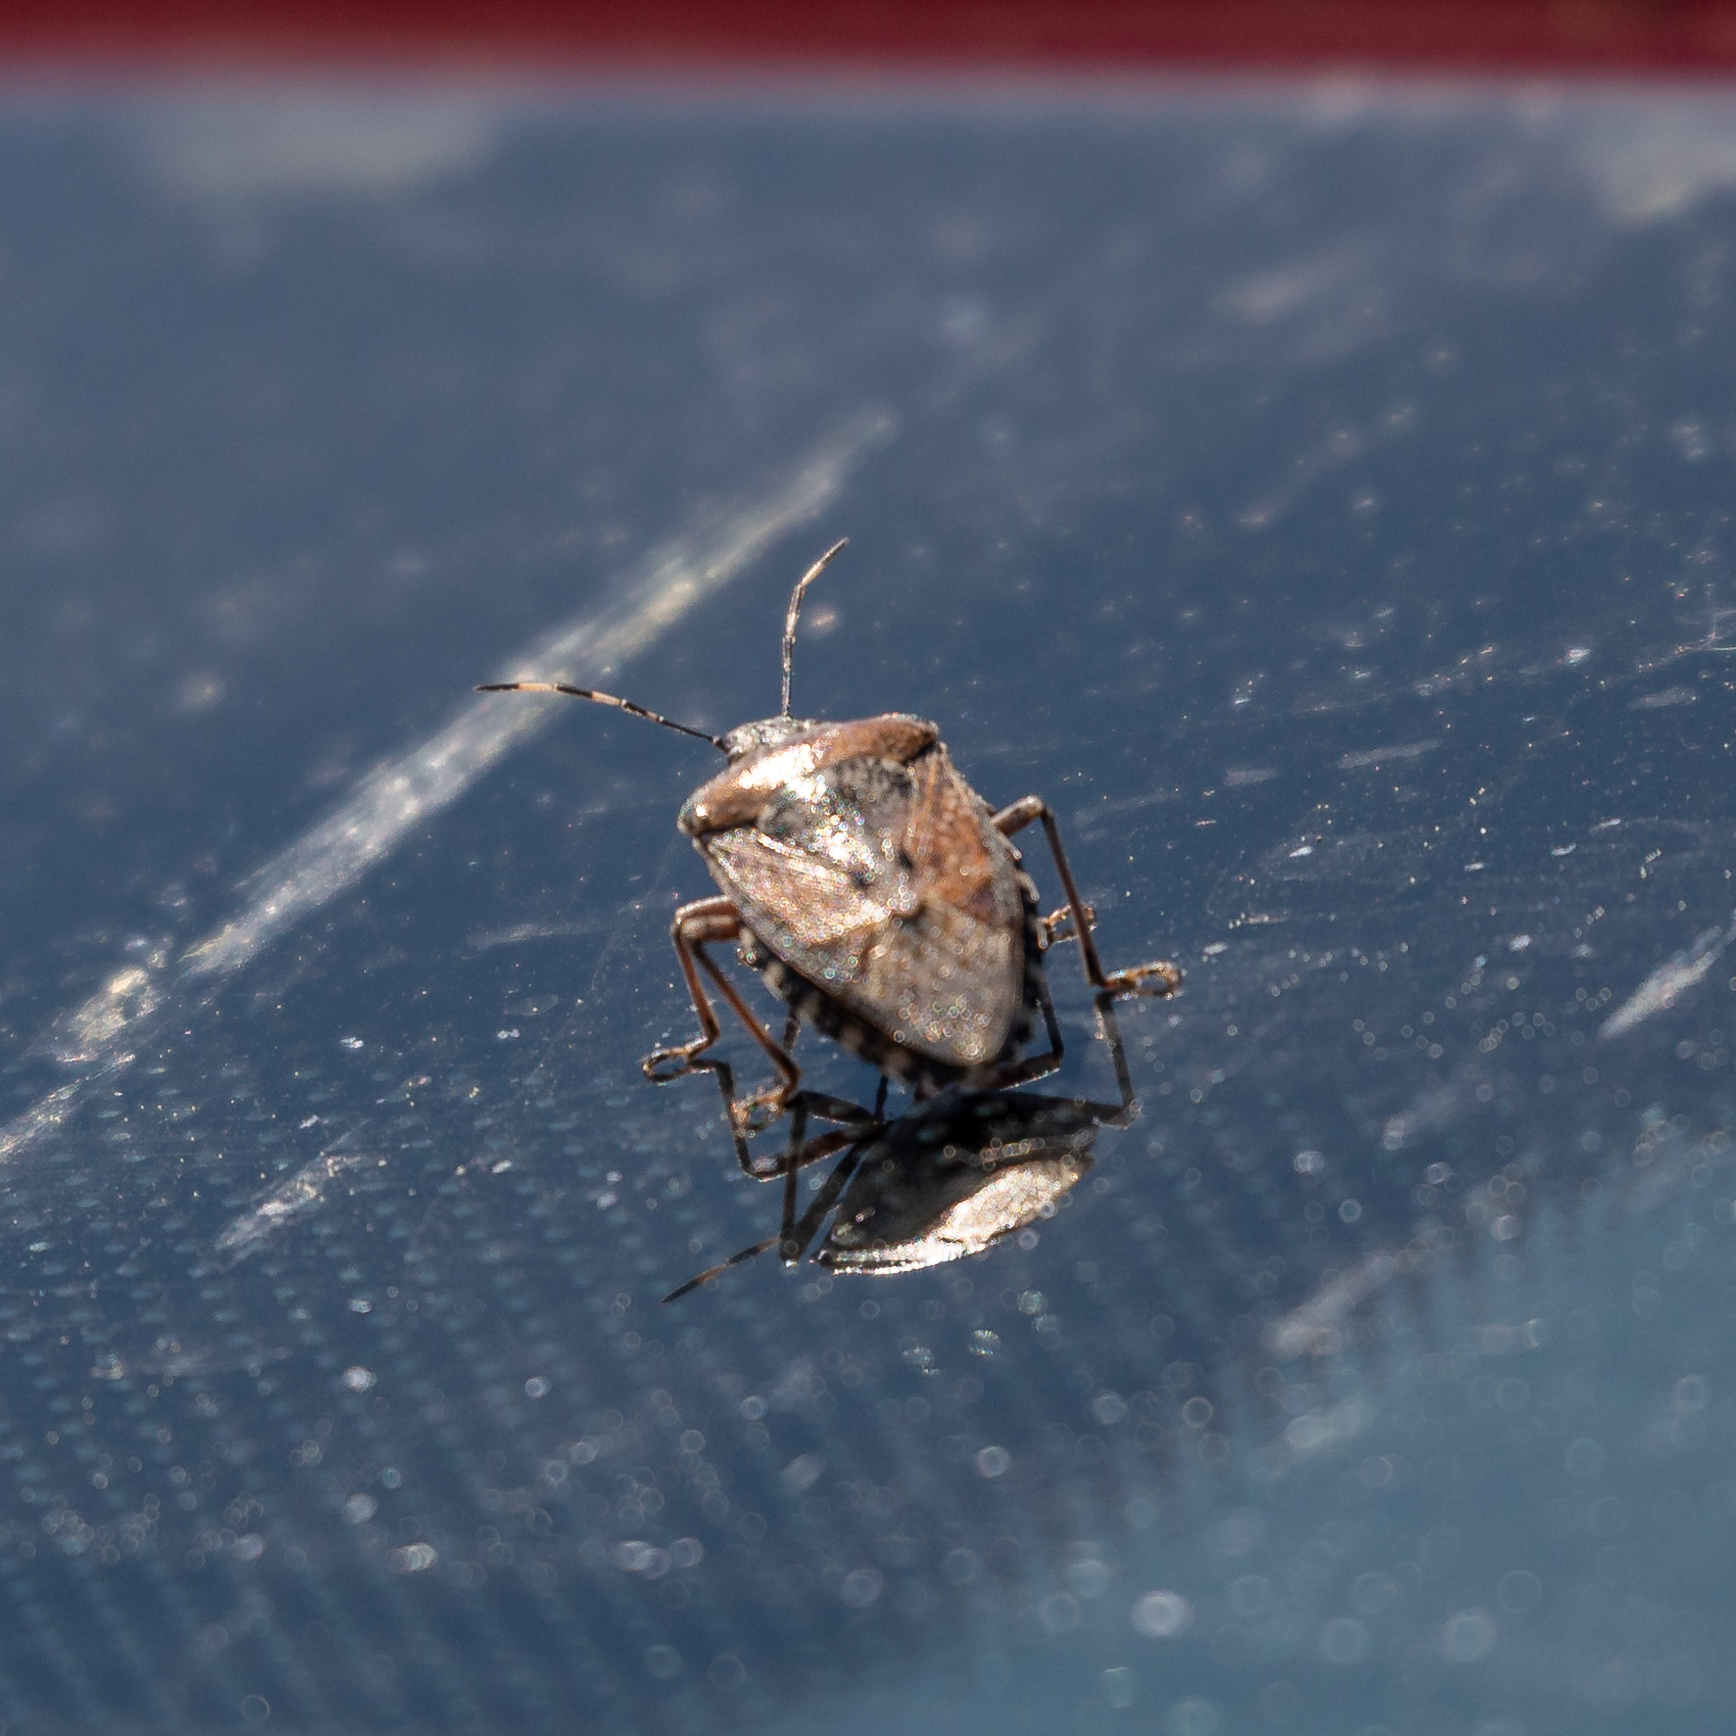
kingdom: Animalia
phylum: Arthropoda
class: Insecta
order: Hemiptera
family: Pentatomidae
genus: Rhaphigaster
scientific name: Rhaphigaster nebulosa
